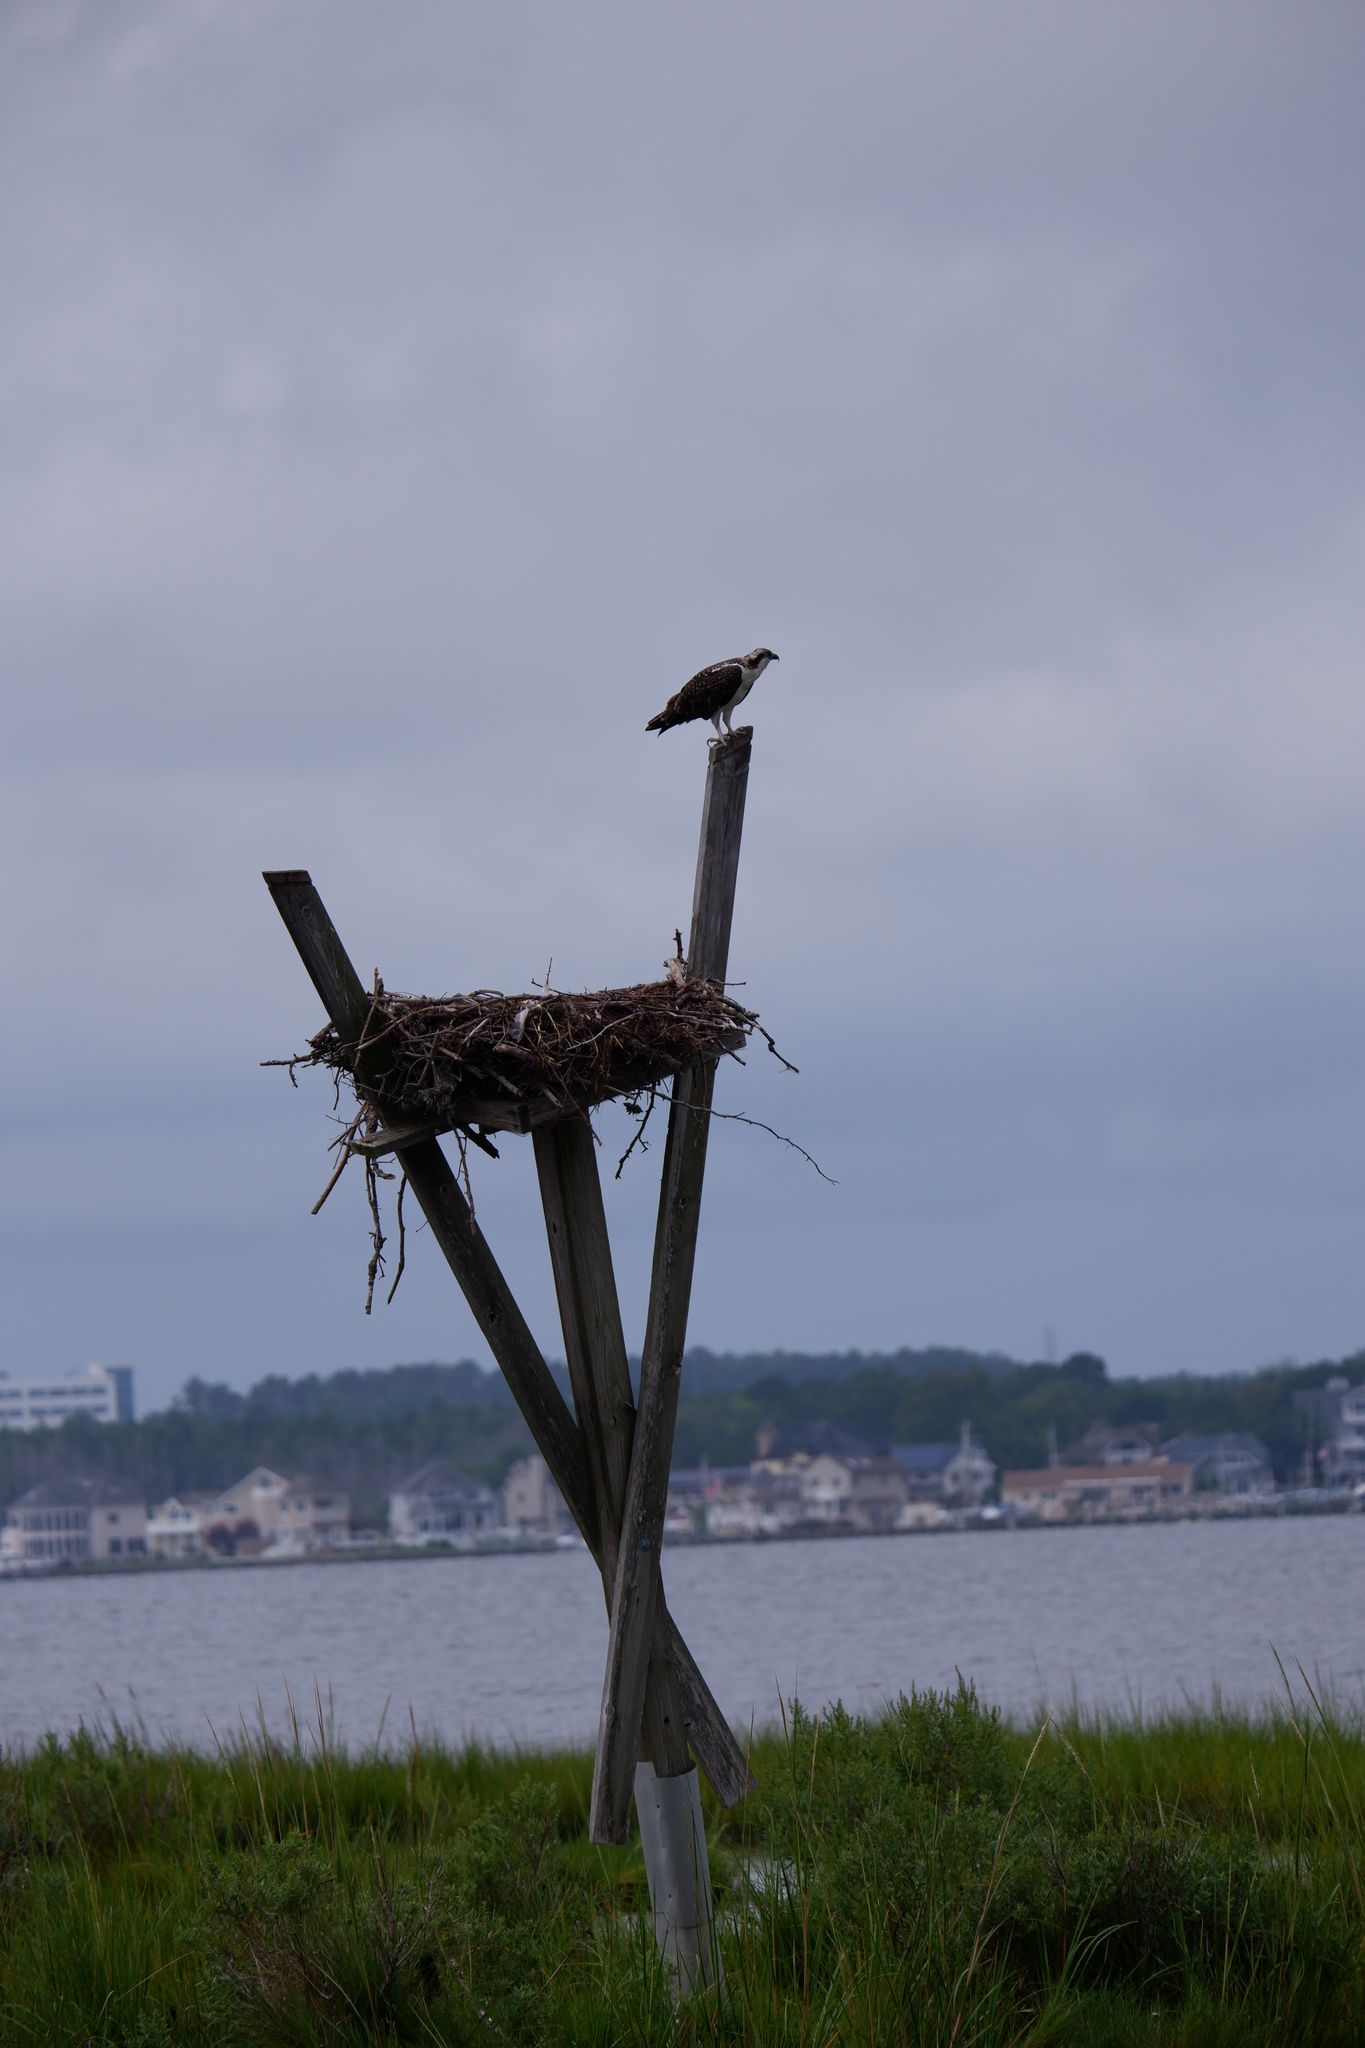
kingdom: Animalia
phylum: Chordata
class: Aves
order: Accipitriformes
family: Pandionidae
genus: Pandion
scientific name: Pandion haliaetus
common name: Osprey
